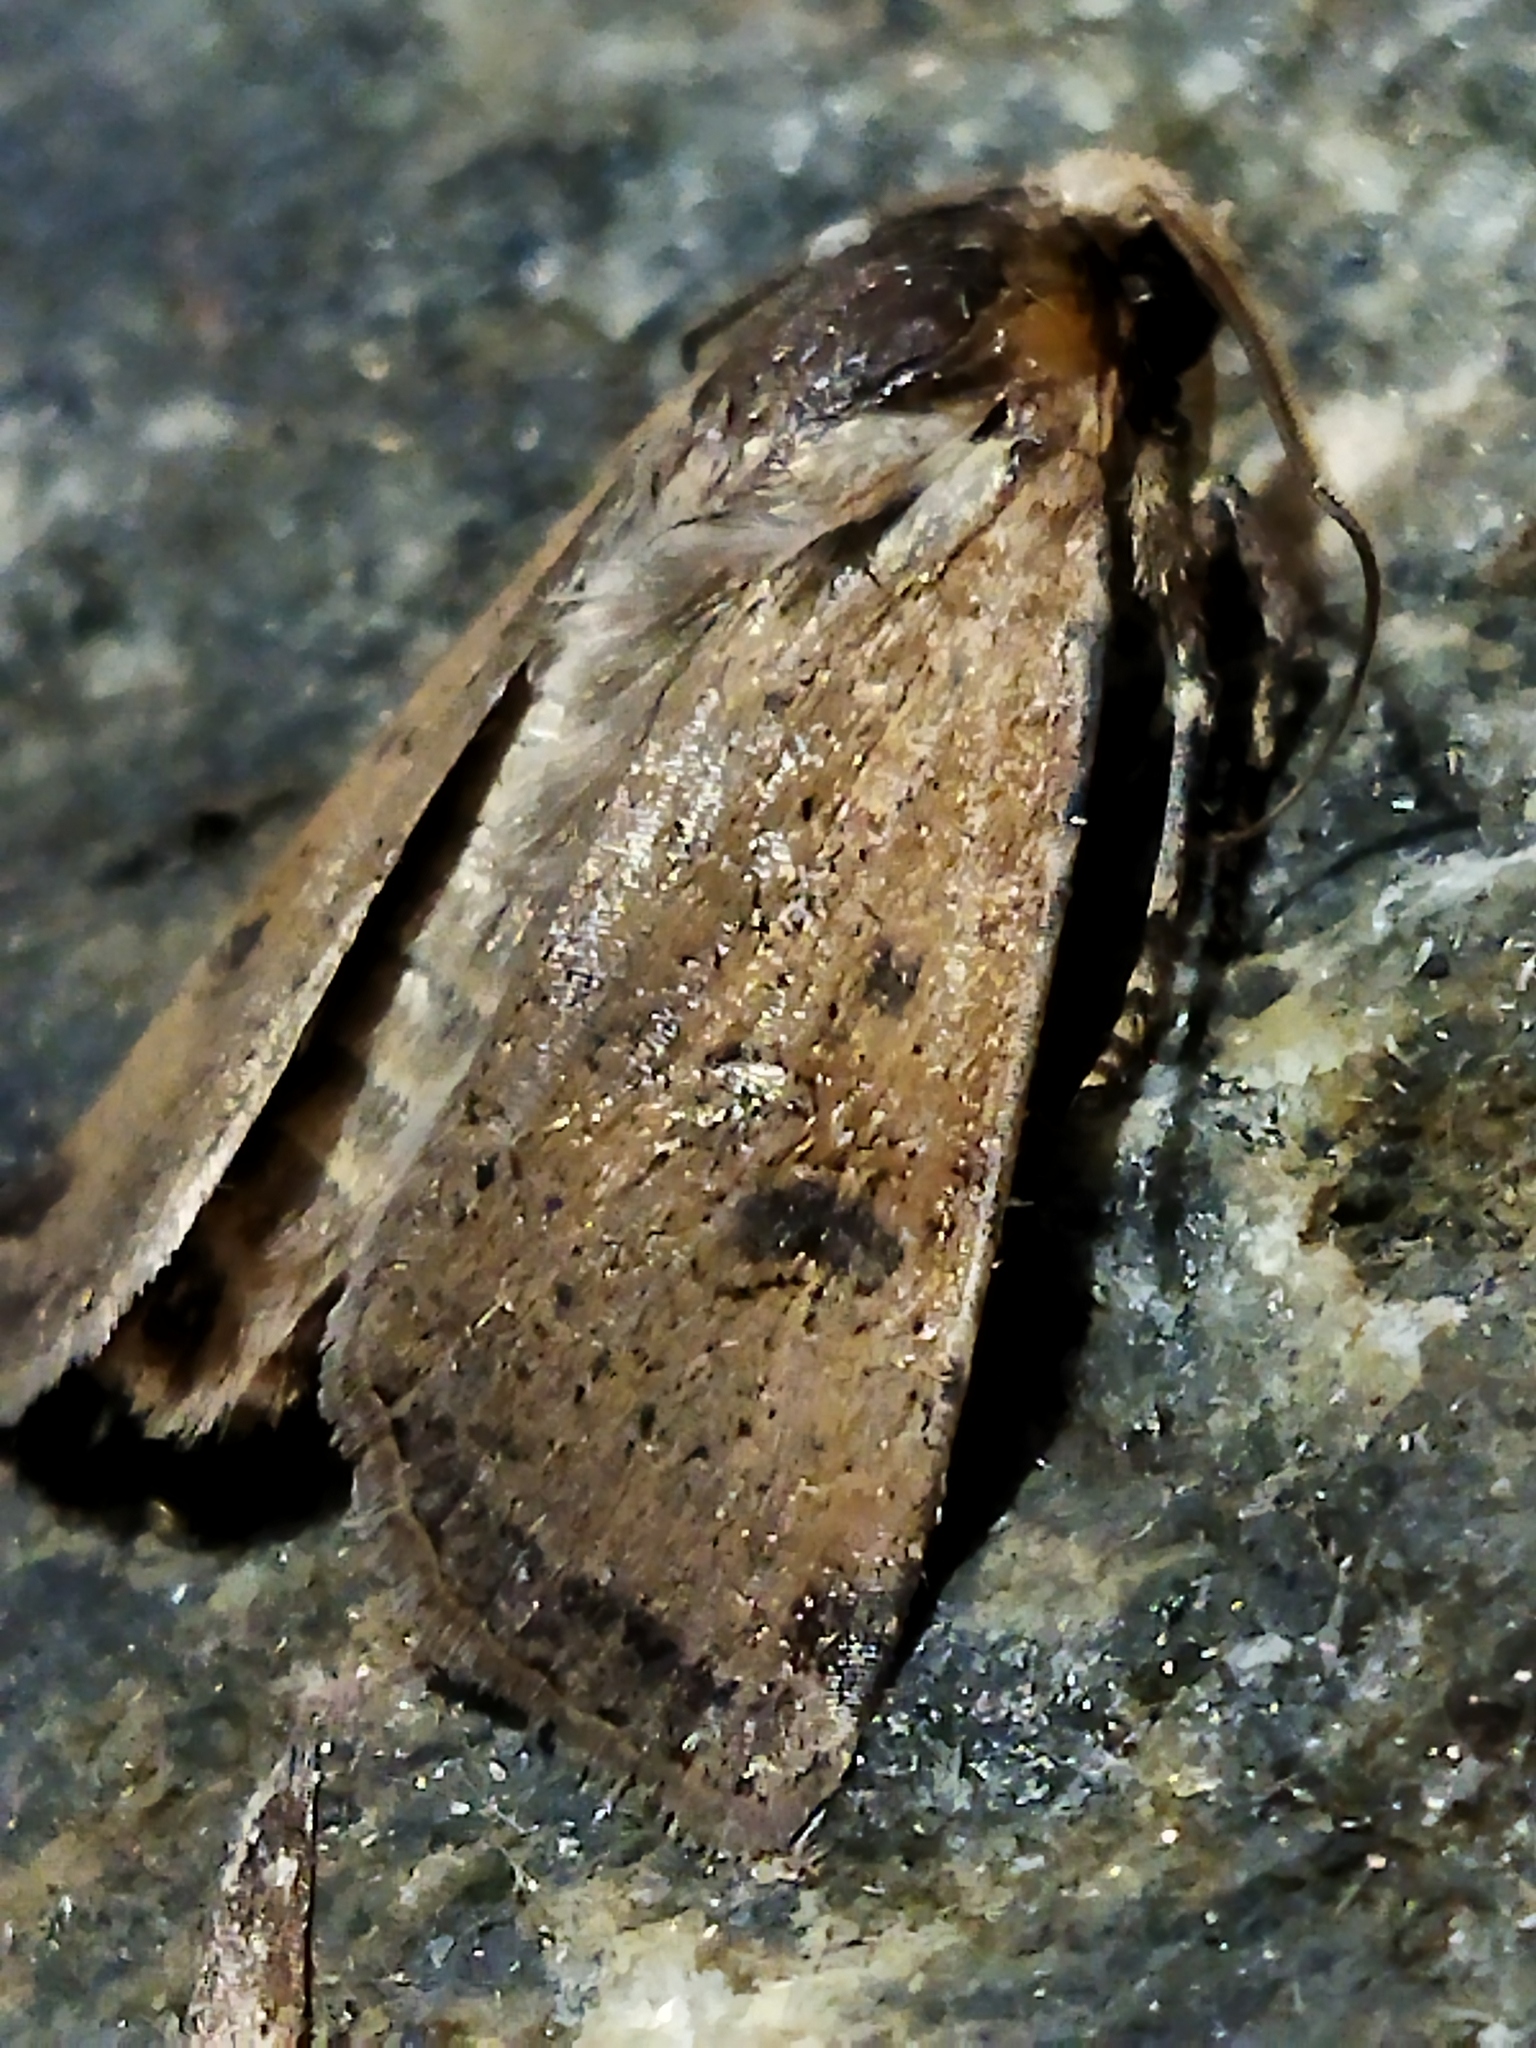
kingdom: Animalia
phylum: Arthropoda
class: Insecta
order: Lepidoptera
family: Noctuidae
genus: Agrotis
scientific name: Agrotis trux
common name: Crescent dart
